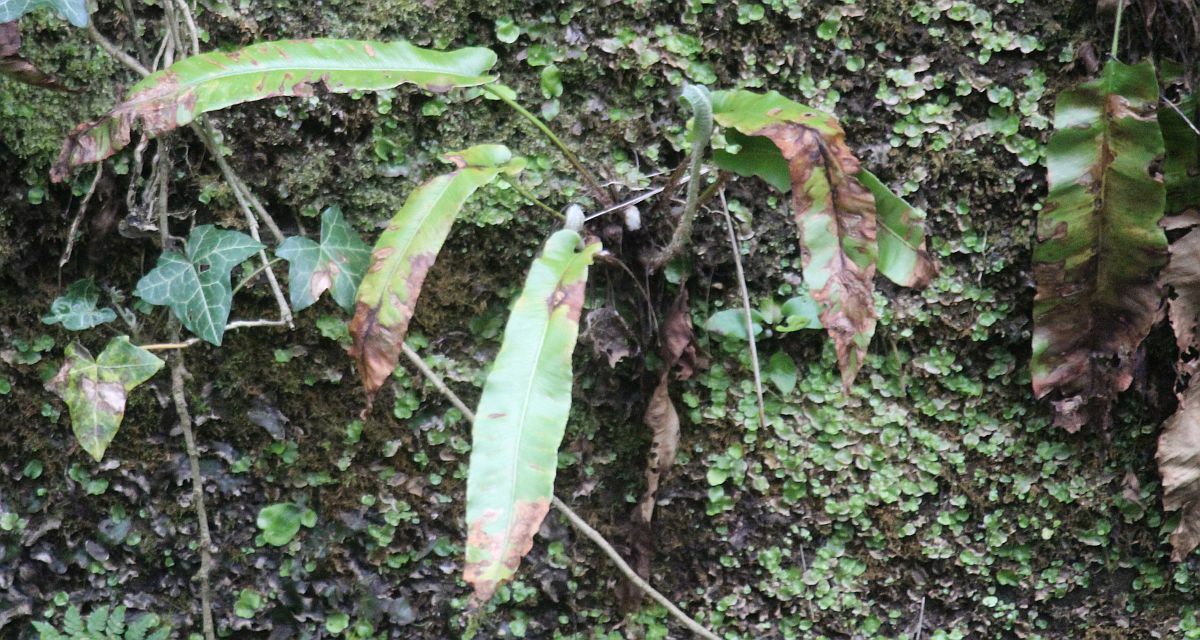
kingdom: Plantae
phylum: Tracheophyta
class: Polypodiopsida
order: Polypodiales
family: Aspleniaceae
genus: Asplenium
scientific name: Asplenium scolopendrium
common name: Hart's-tongue fern
